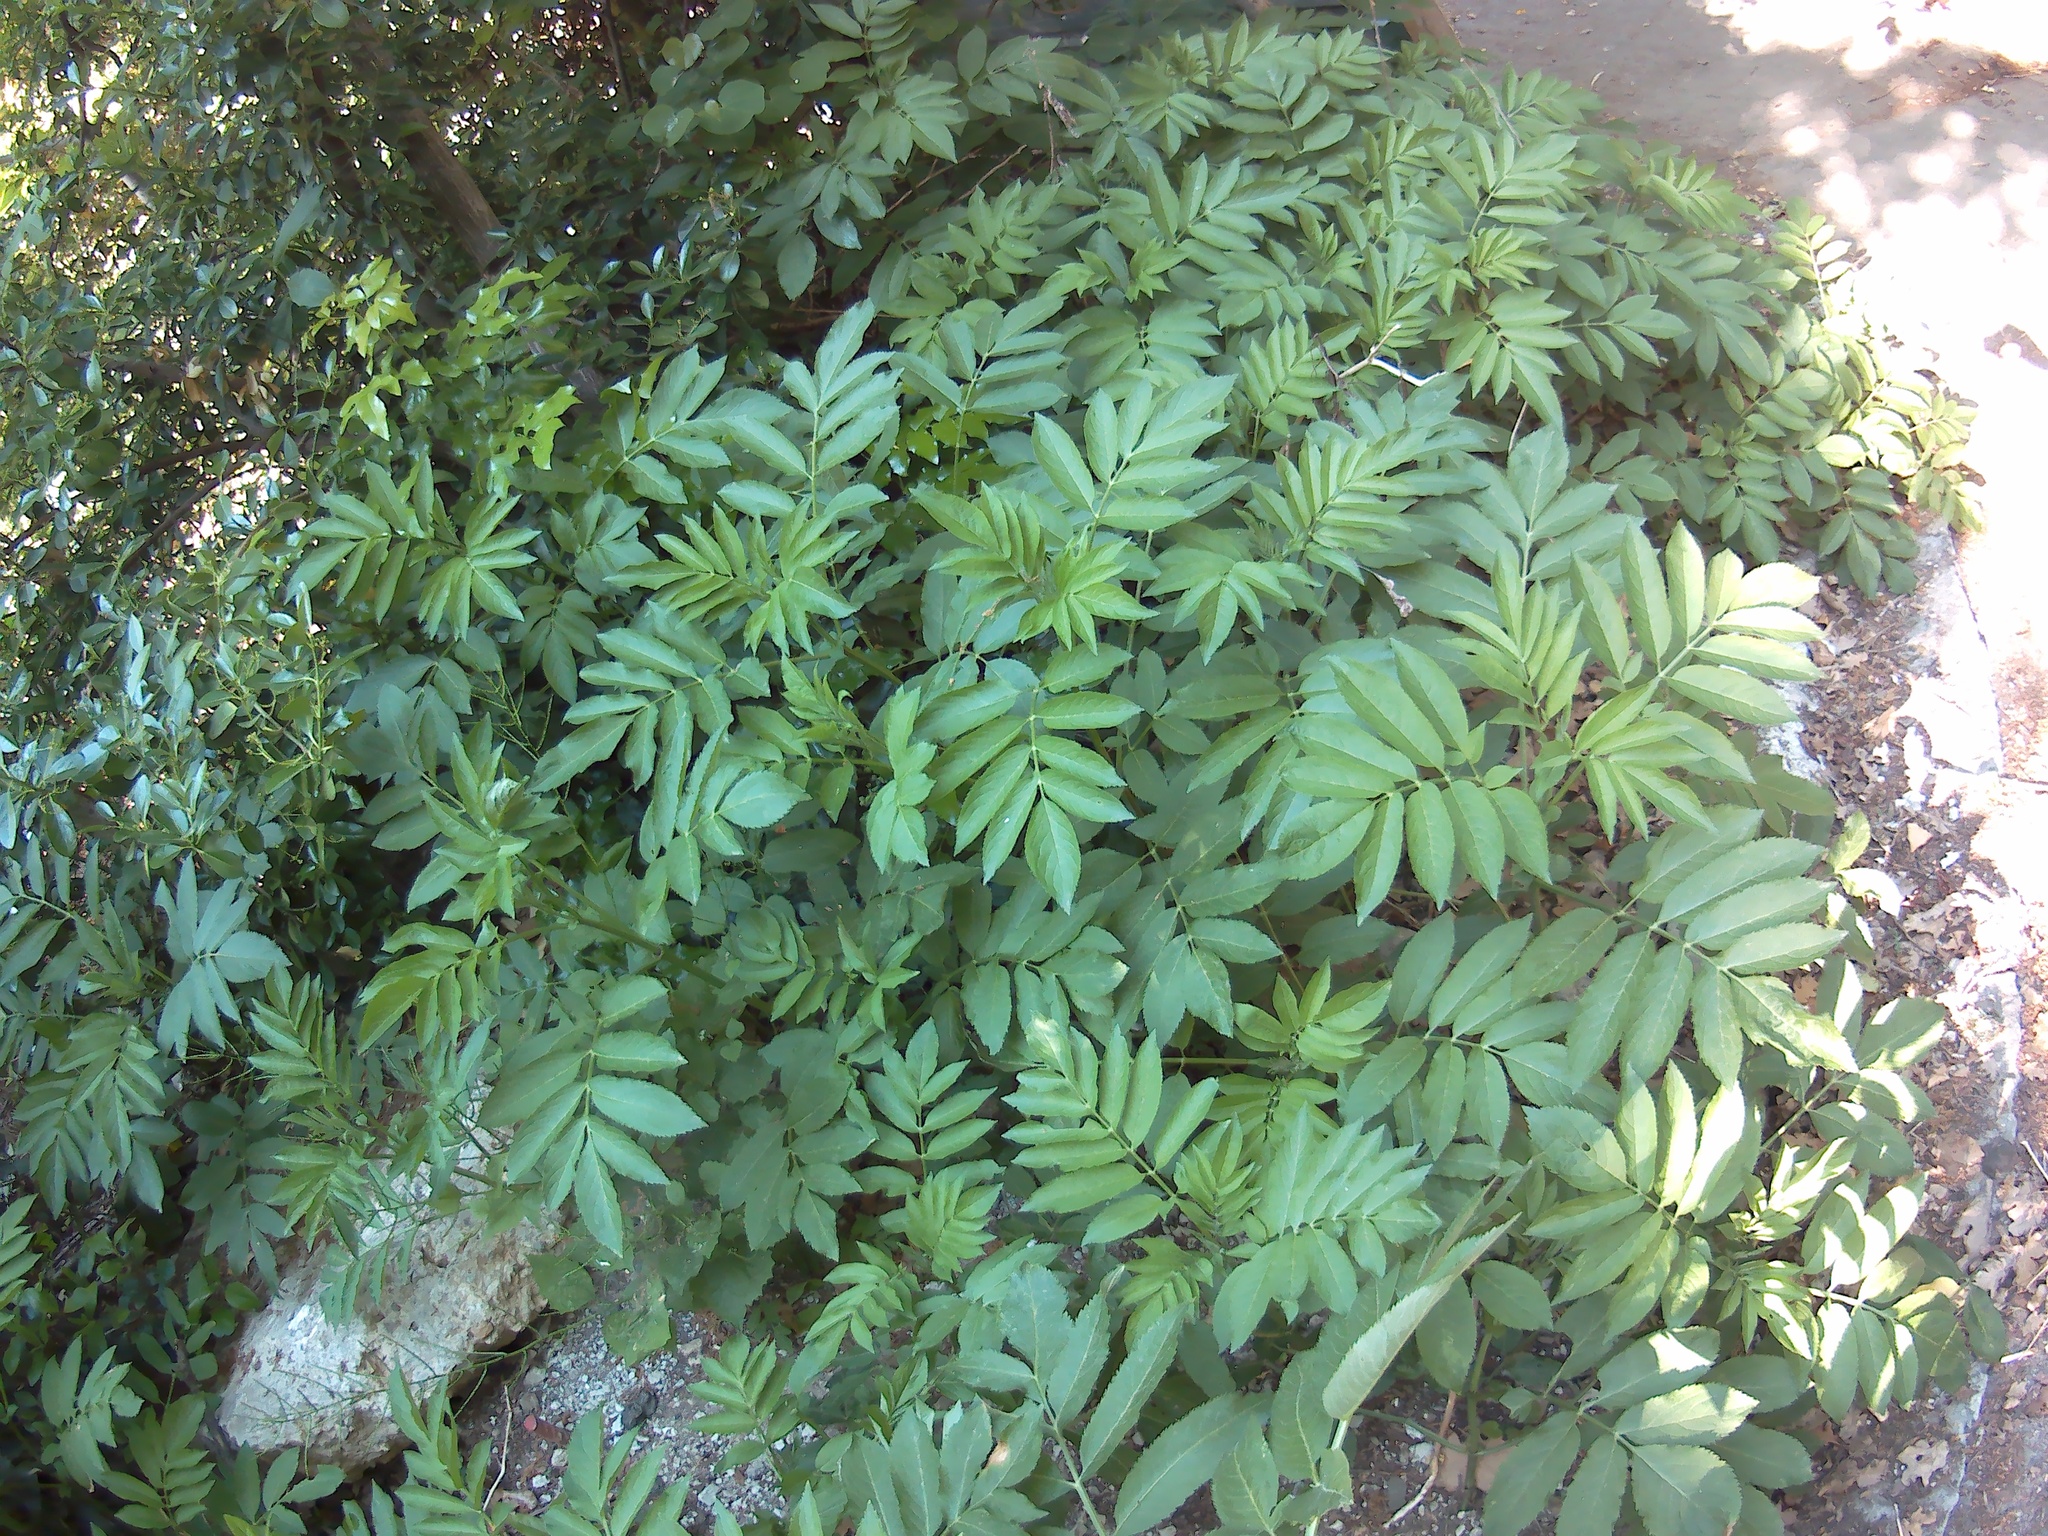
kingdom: Plantae
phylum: Tracheophyta
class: Magnoliopsida
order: Dipsacales
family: Viburnaceae
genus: Sambucus
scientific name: Sambucus ebulus
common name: Dwarf elder
